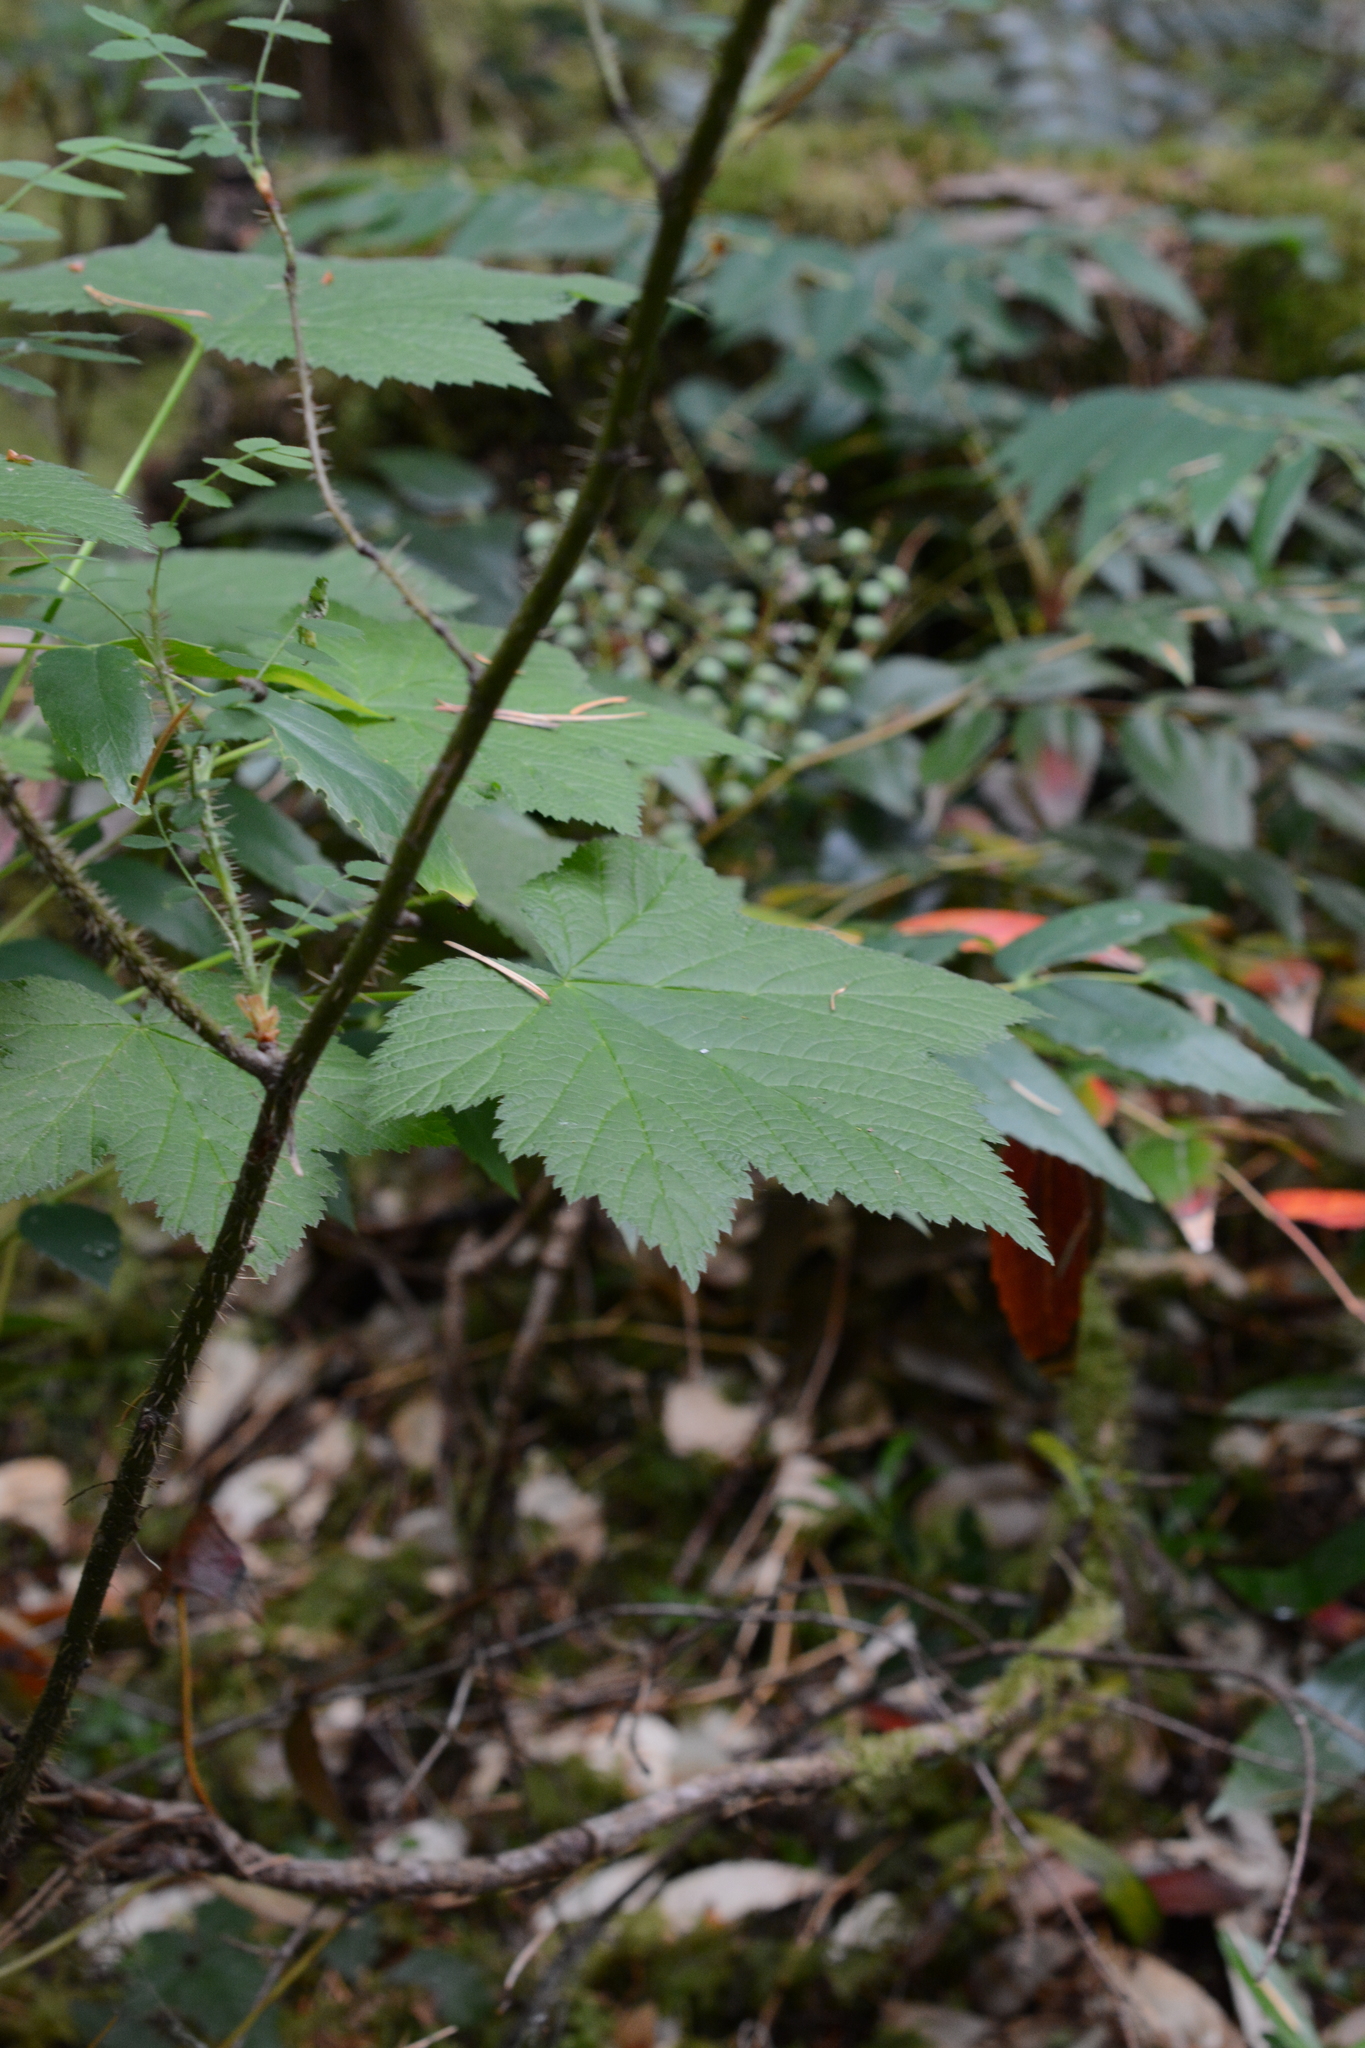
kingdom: Plantae
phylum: Tracheophyta
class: Magnoliopsida
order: Rosales
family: Rosaceae
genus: Rubus
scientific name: Rubus parviflorus
